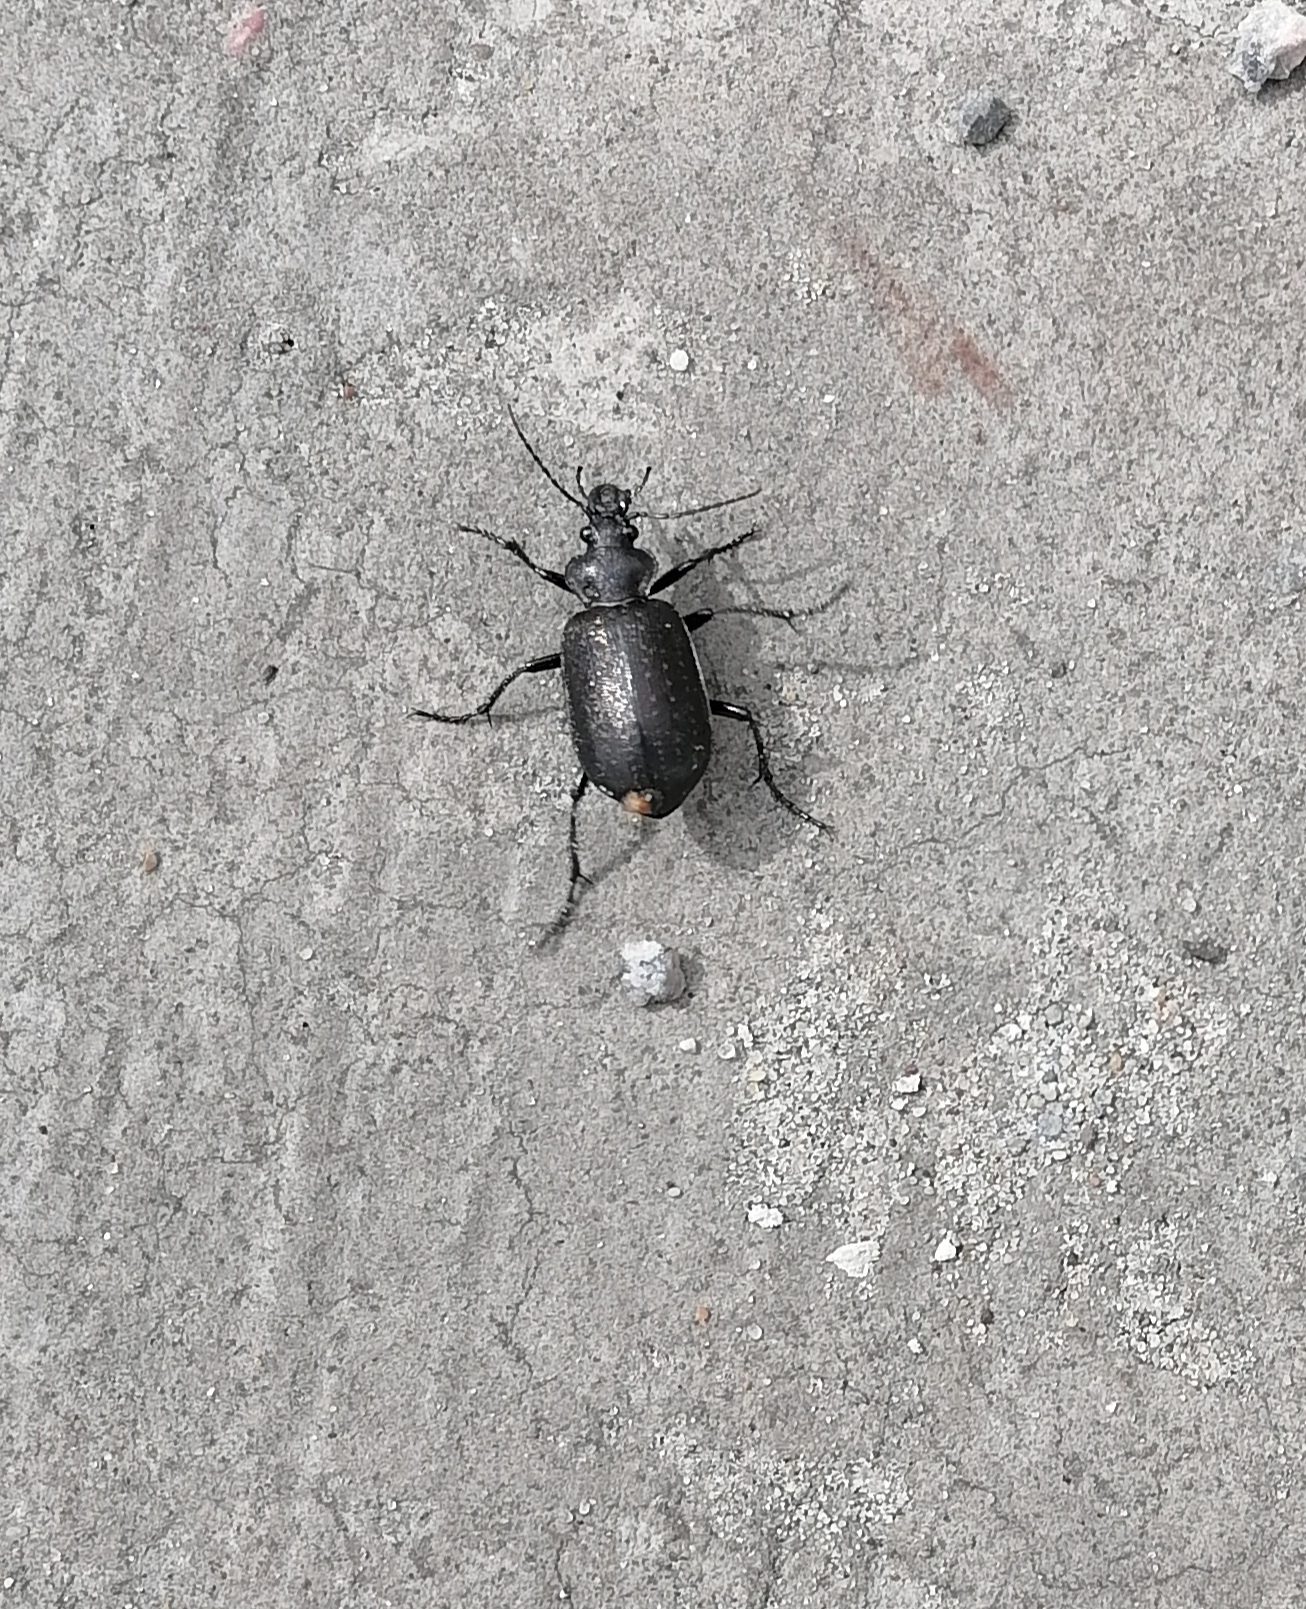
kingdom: Animalia
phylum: Arthropoda
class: Insecta
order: Coleoptera
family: Carabidae
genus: Calosoma
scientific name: Calosoma denticolle
